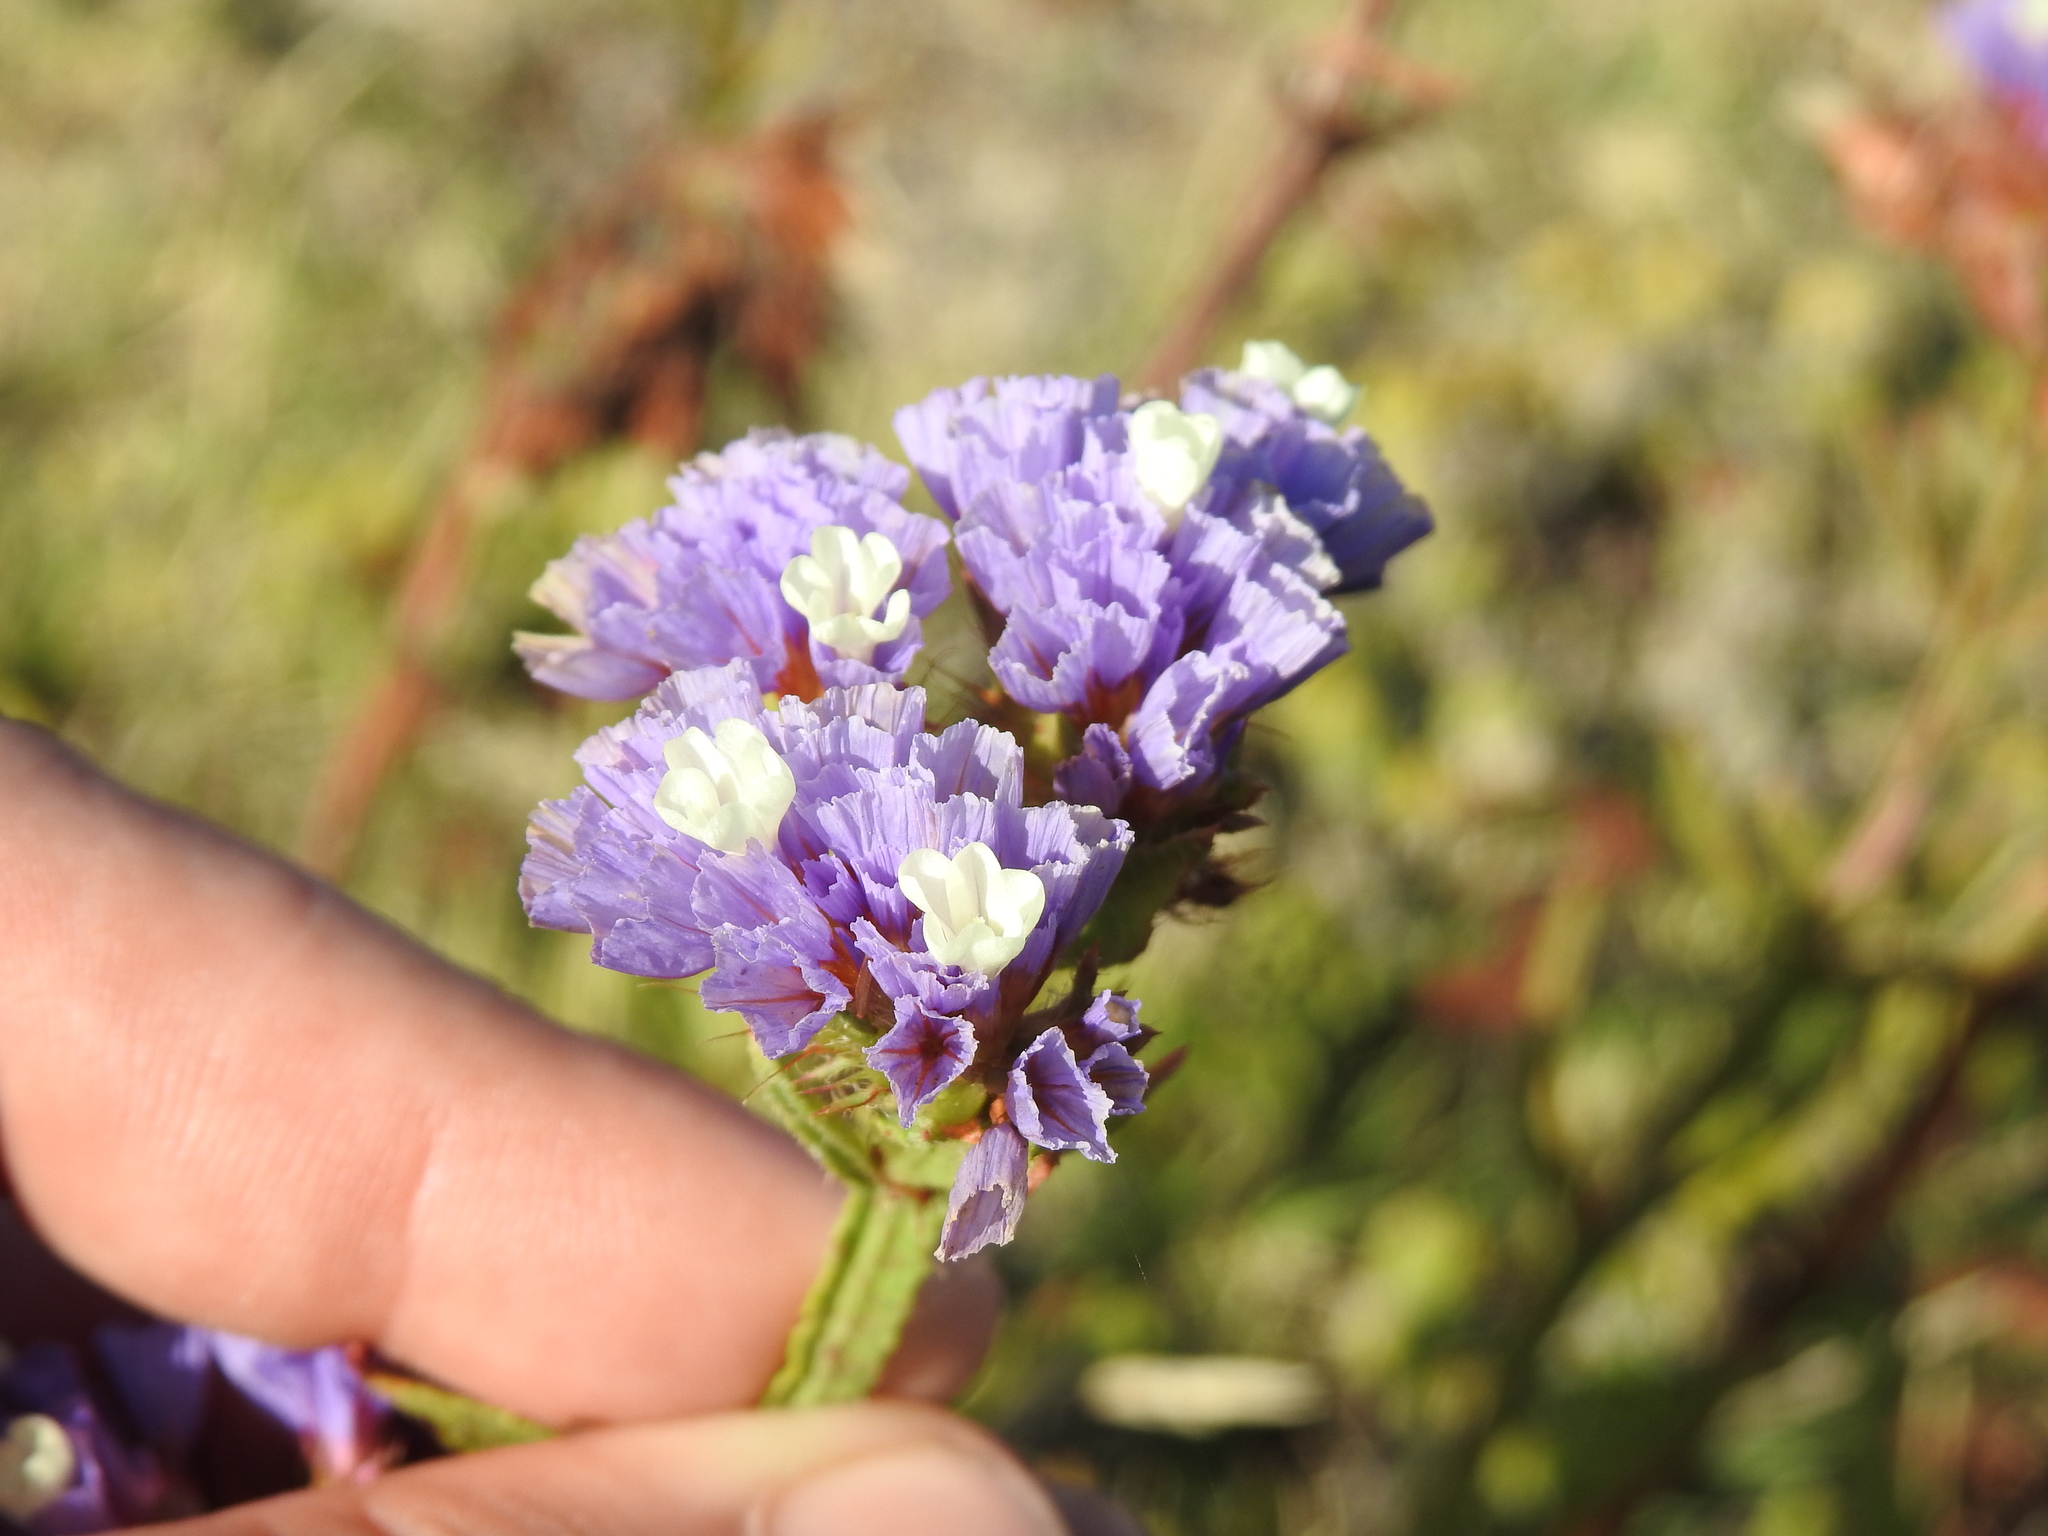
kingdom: Plantae
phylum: Tracheophyta
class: Magnoliopsida
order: Caryophyllales
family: Plumbaginaceae
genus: Limonium
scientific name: Limonium sinuatum
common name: Statice
